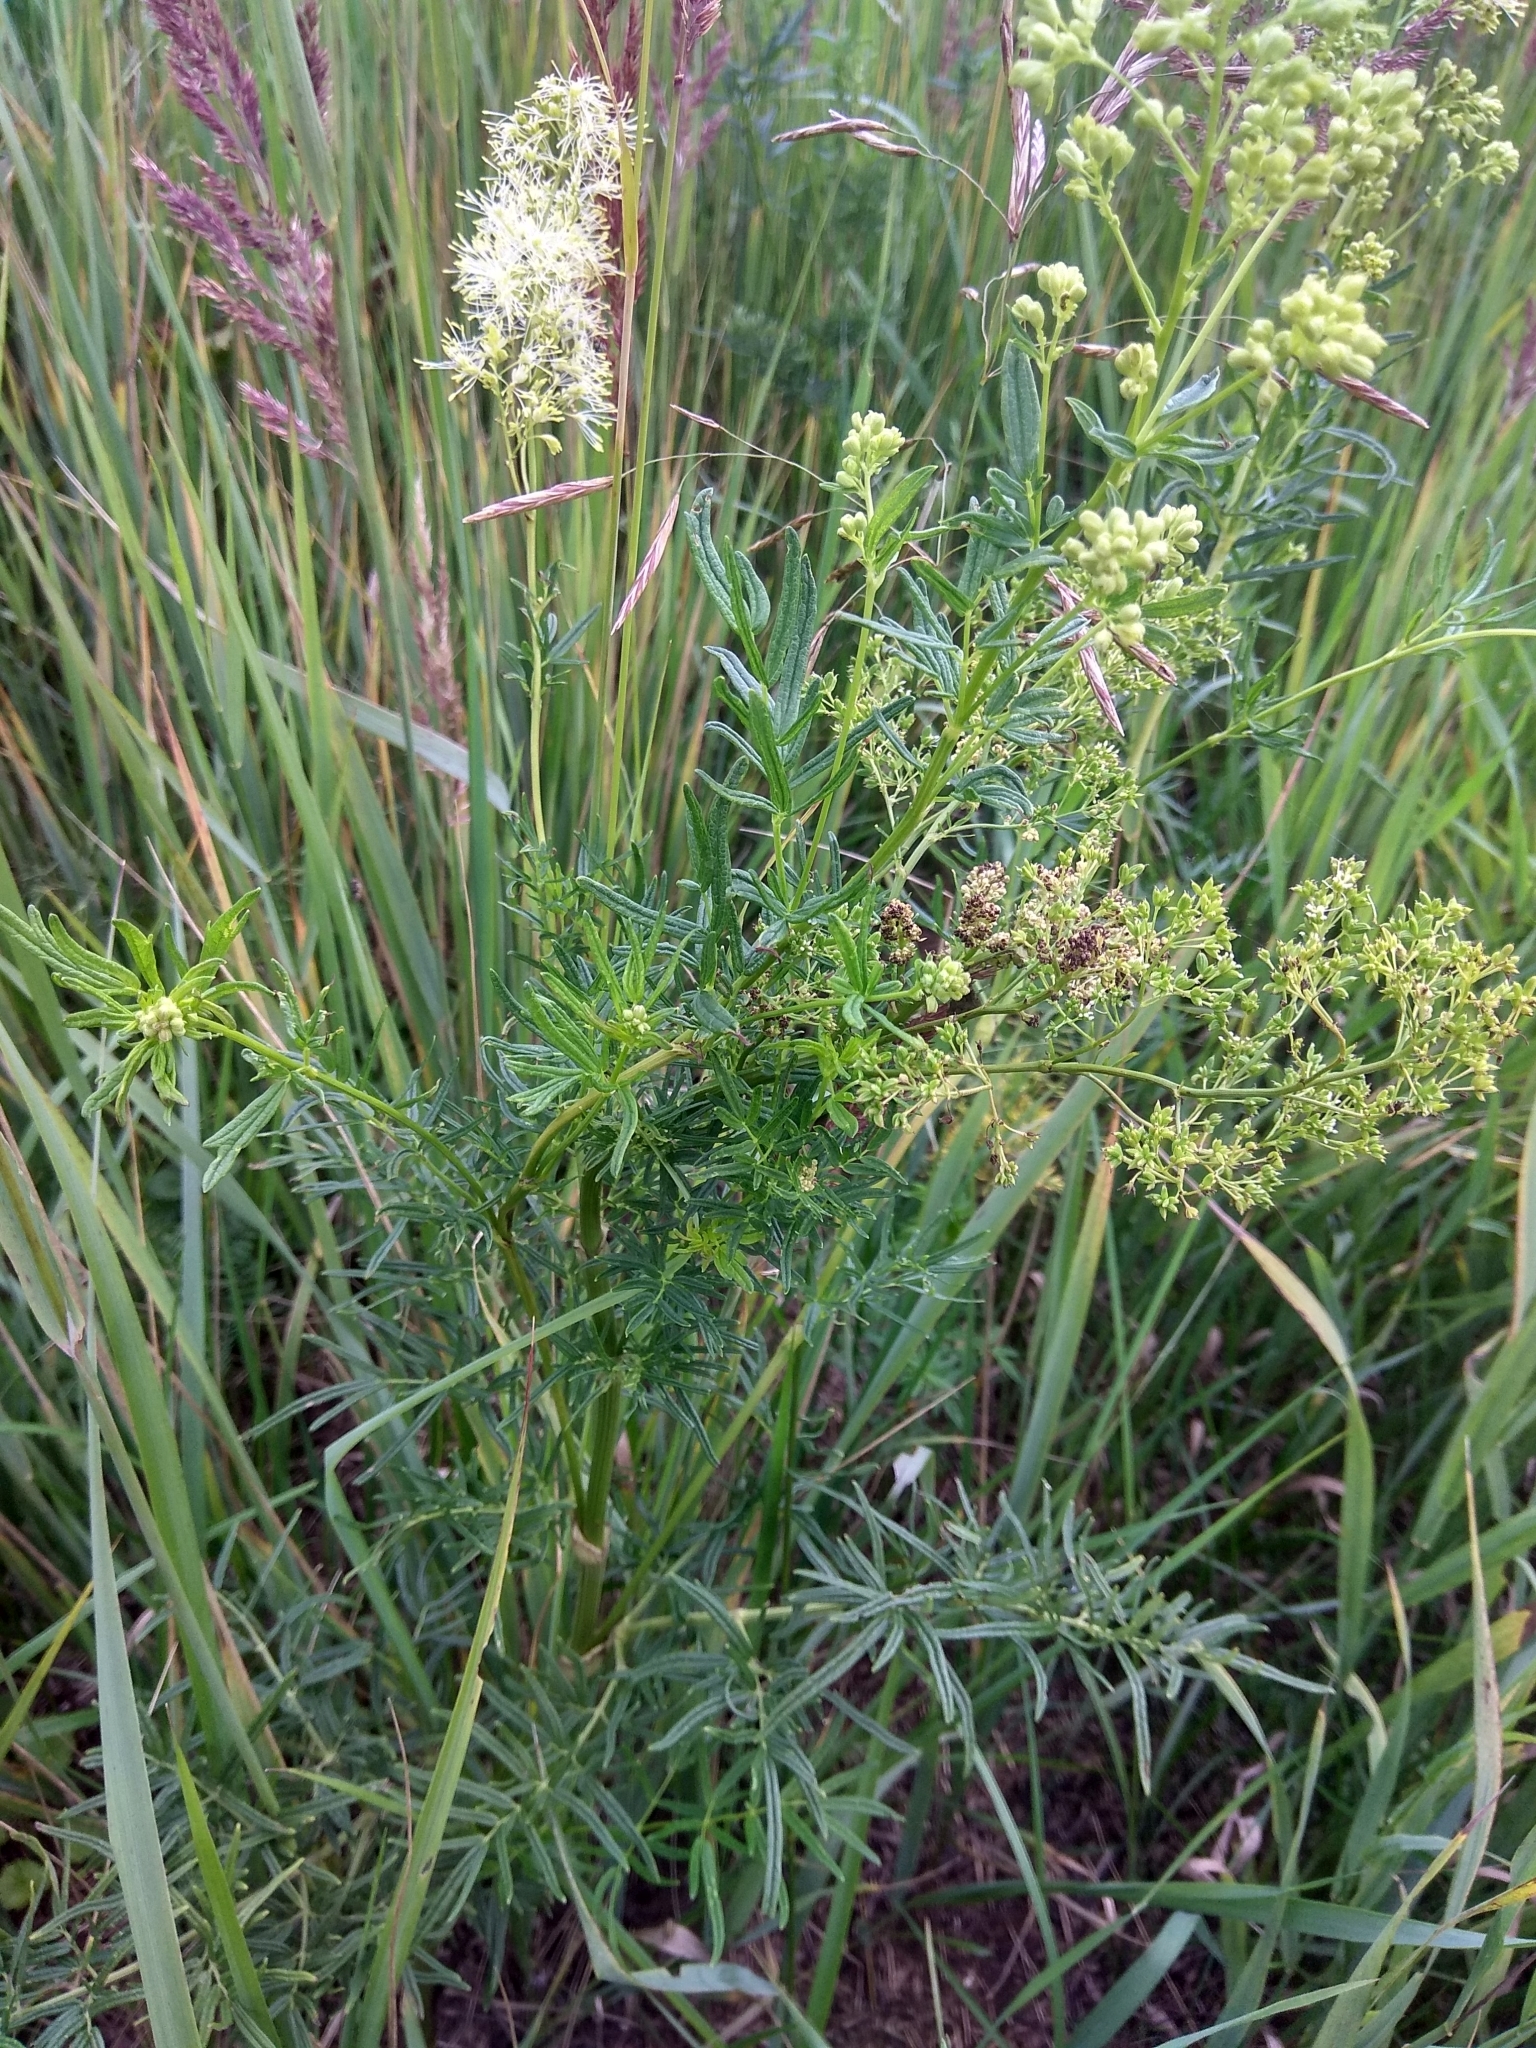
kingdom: Plantae
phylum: Tracheophyta
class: Magnoliopsida
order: Ranunculales
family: Ranunculaceae
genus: Thalictrum
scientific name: Thalictrum lucidum
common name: Shining meadow-rue
